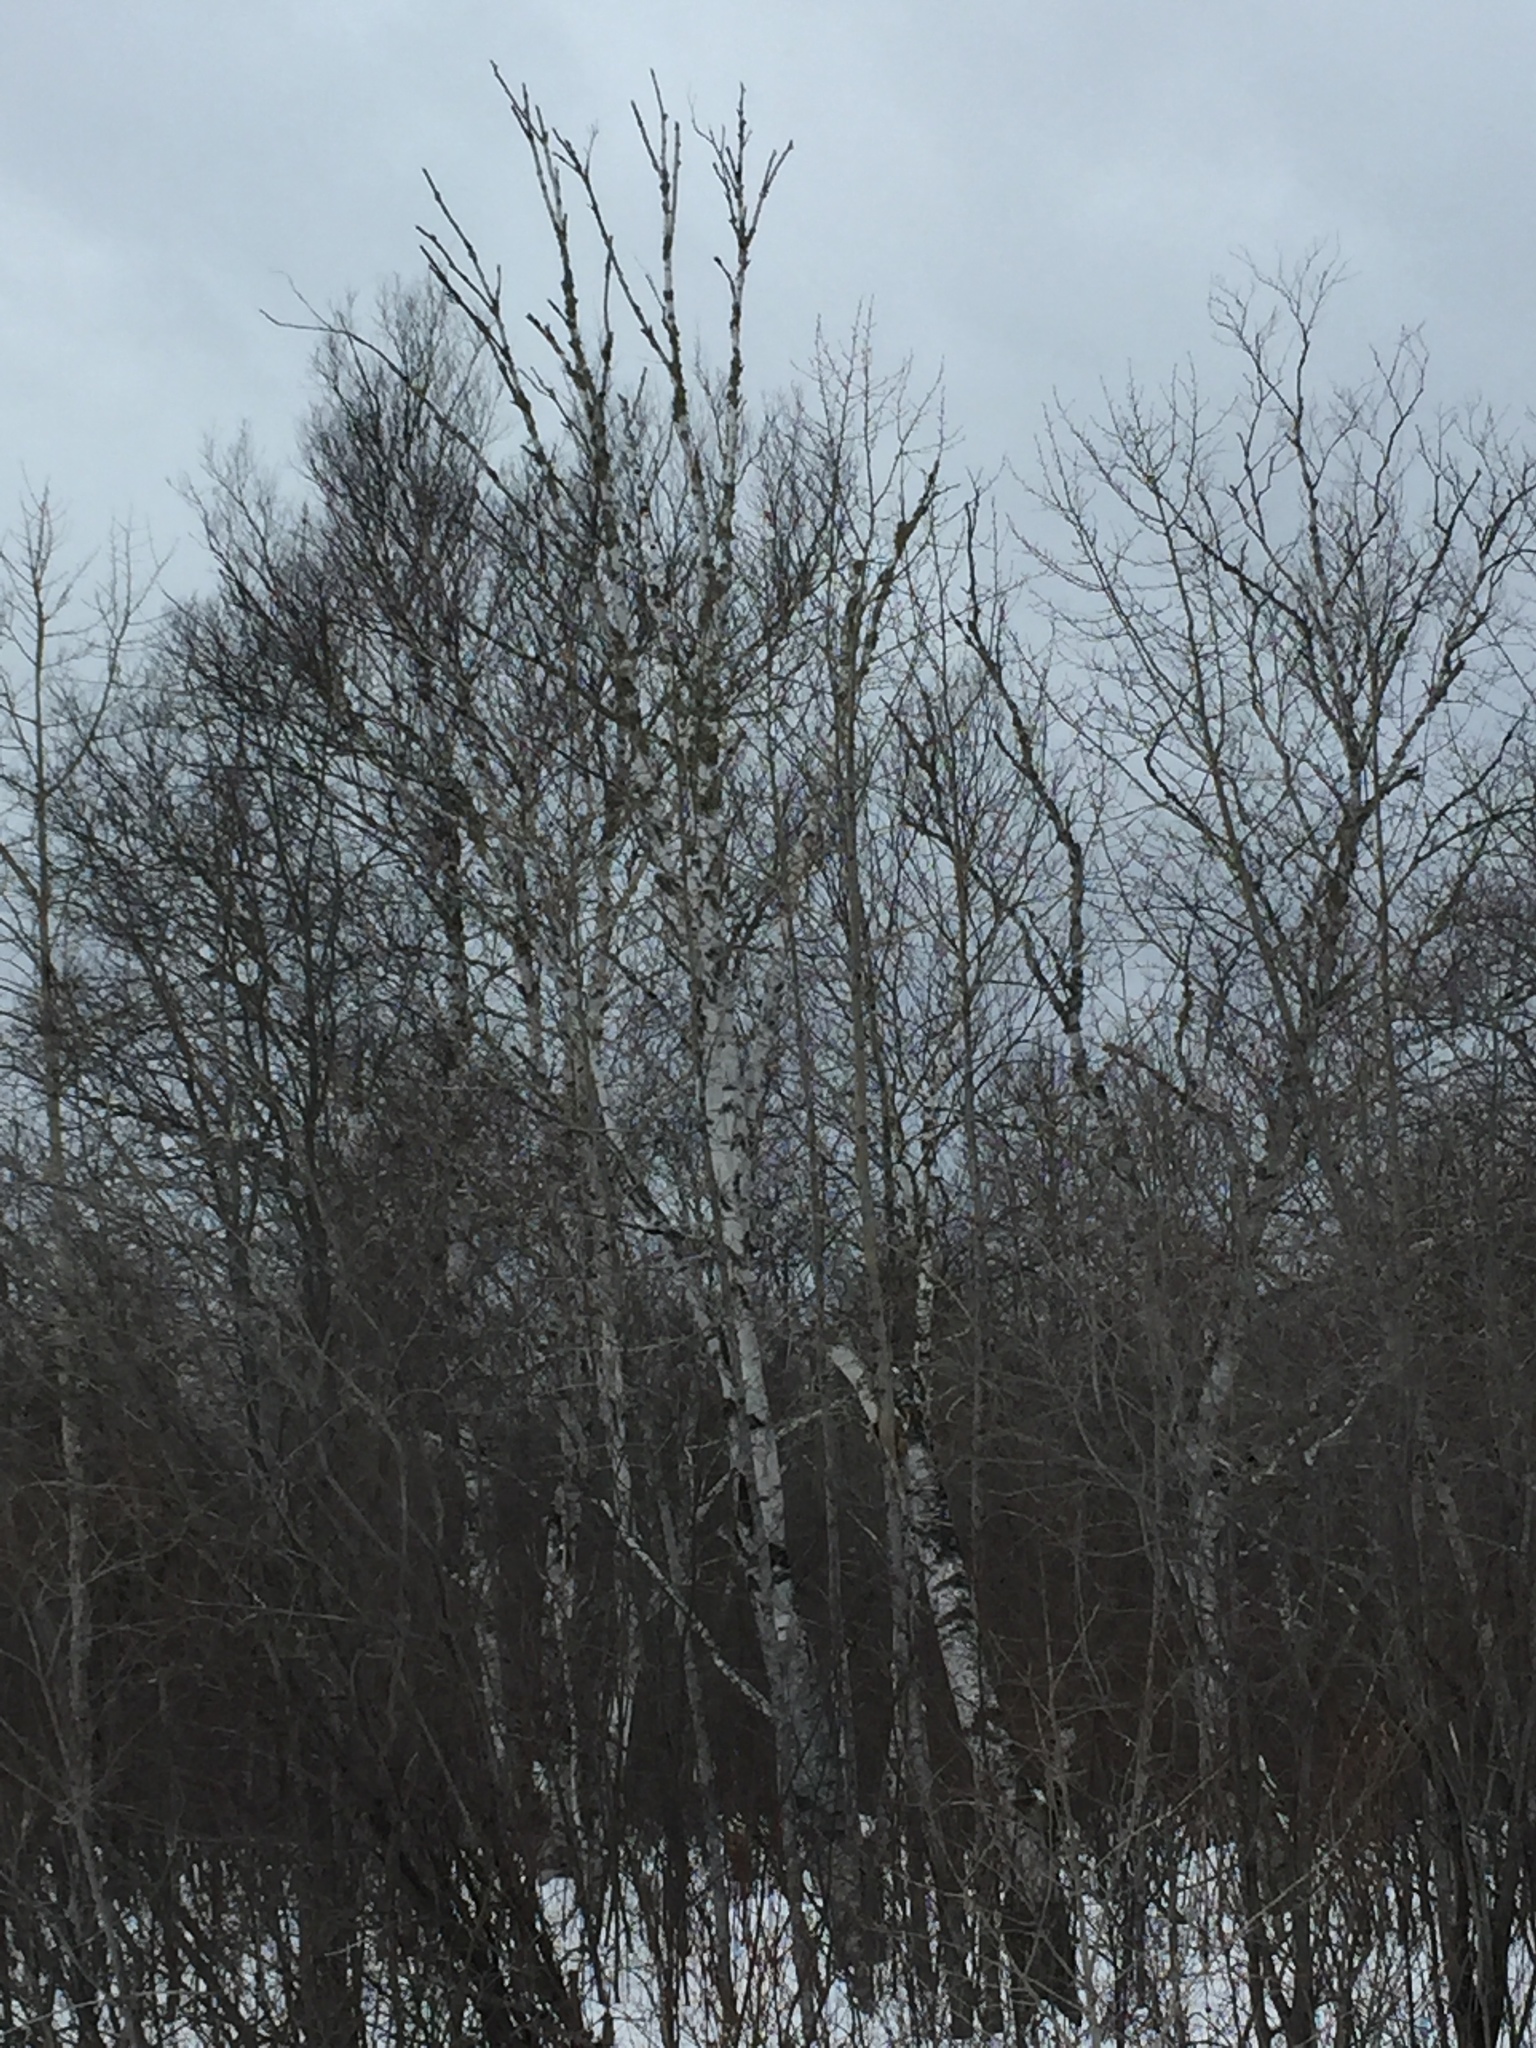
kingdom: Plantae
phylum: Tracheophyta
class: Magnoliopsida
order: Fagales
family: Betulaceae
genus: Betula
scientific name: Betula papyrifera
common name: Paper birch
